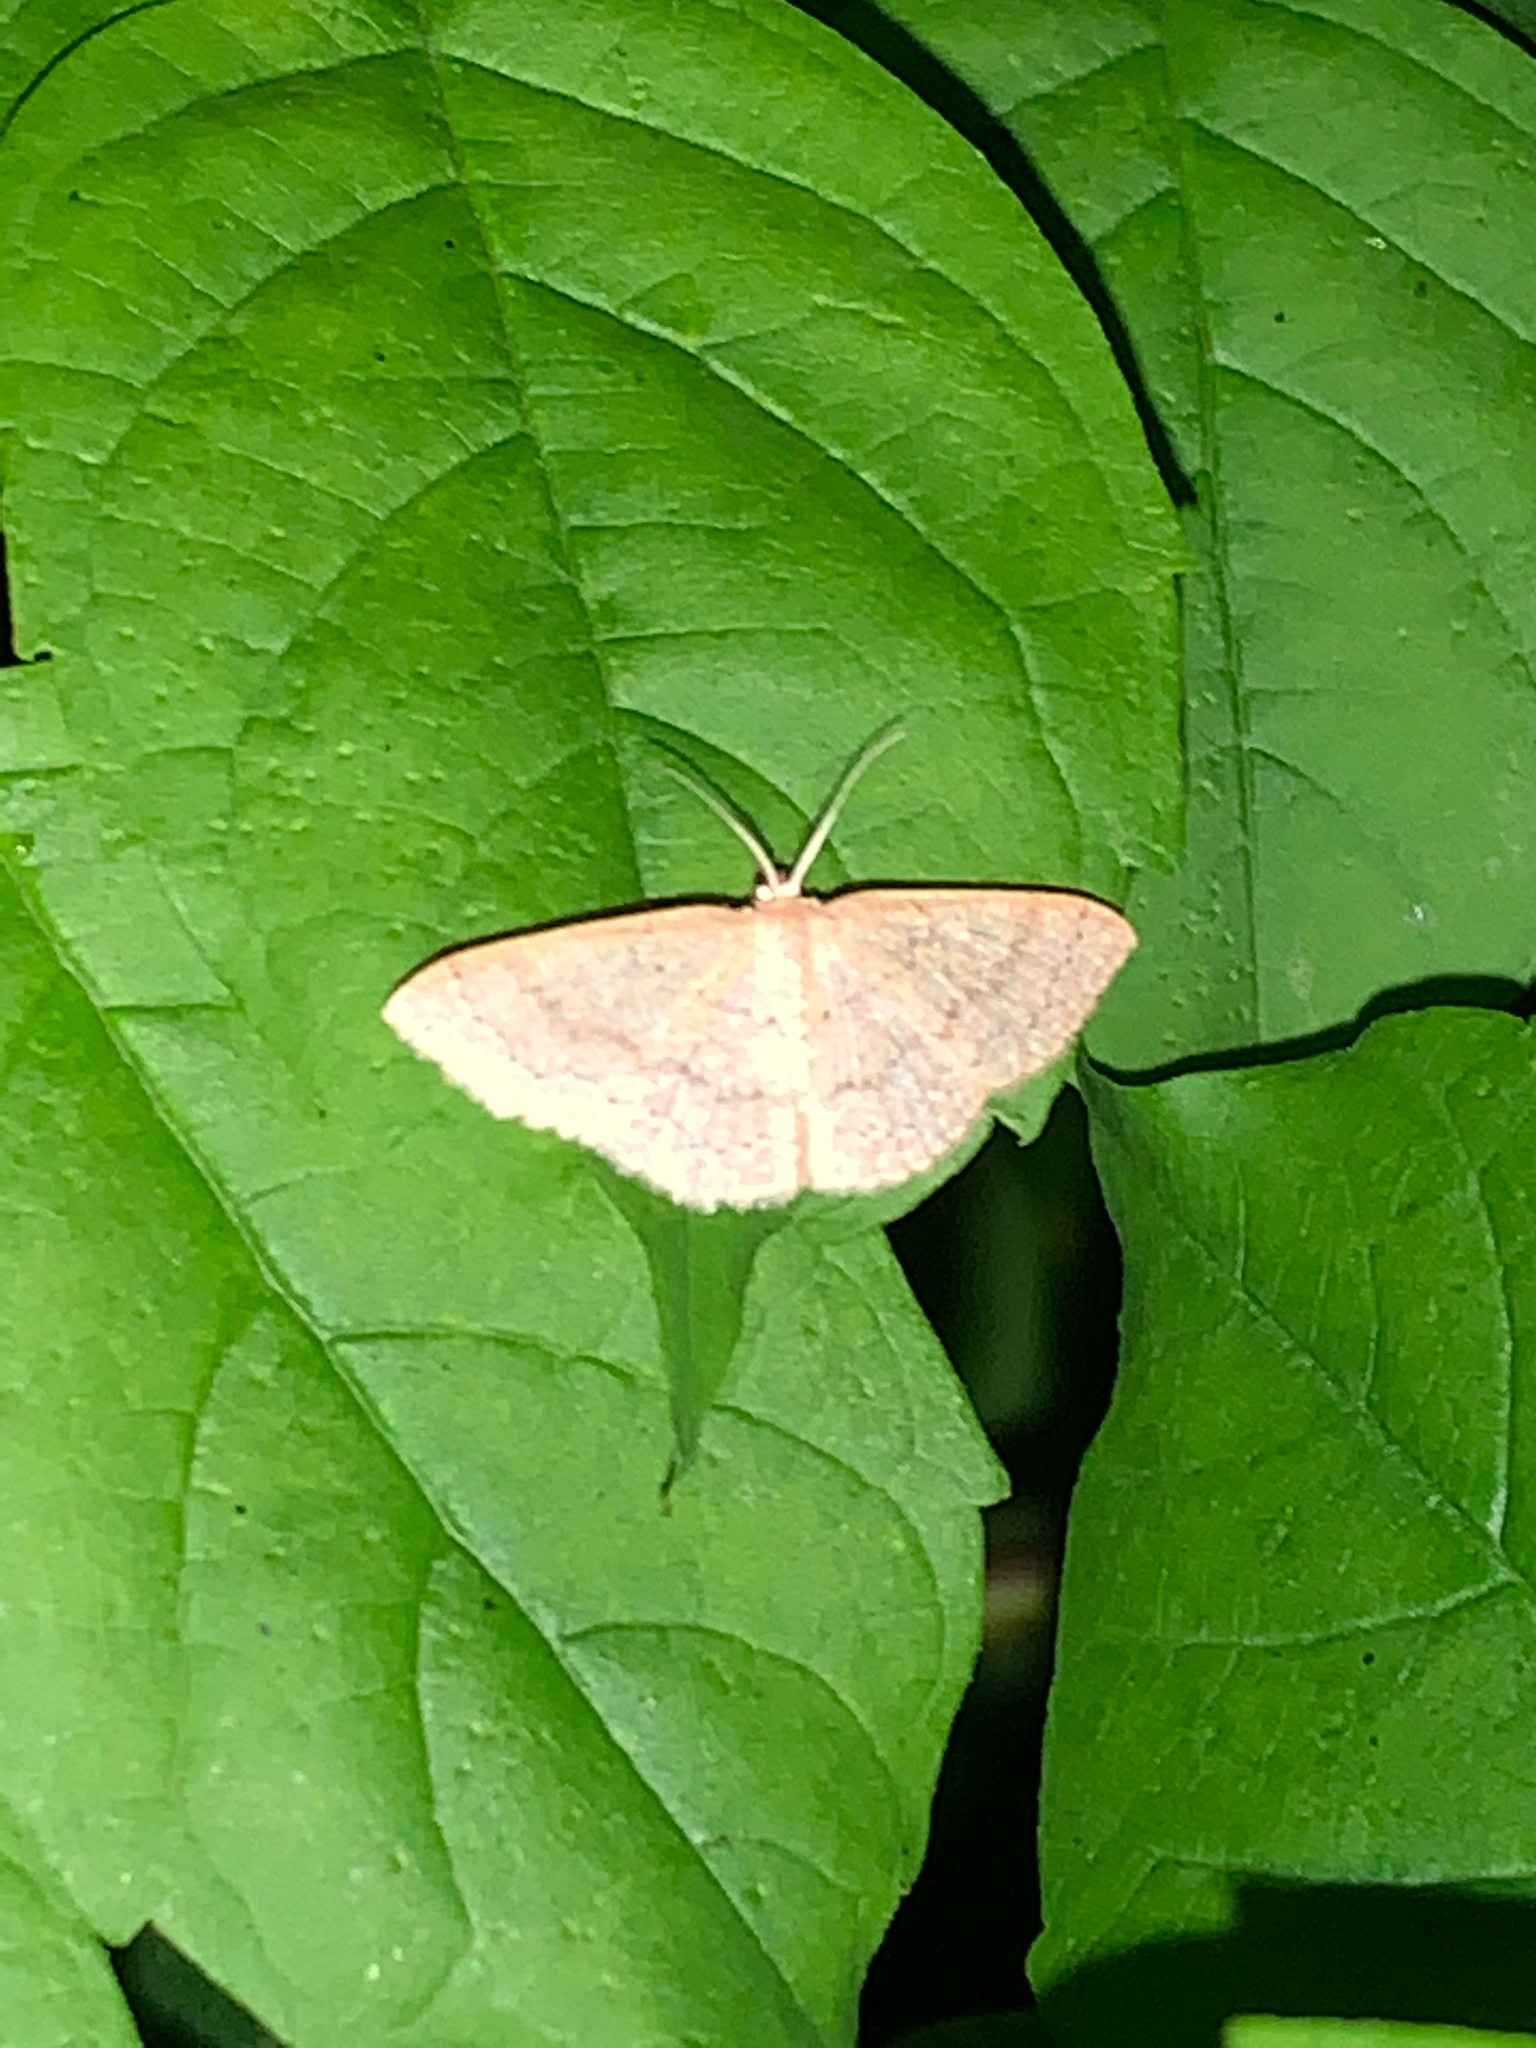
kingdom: Animalia
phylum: Arthropoda
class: Insecta
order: Lepidoptera
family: Geometridae
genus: Pleuroprucha
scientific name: Pleuroprucha insulsaria
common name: Common tan wave
